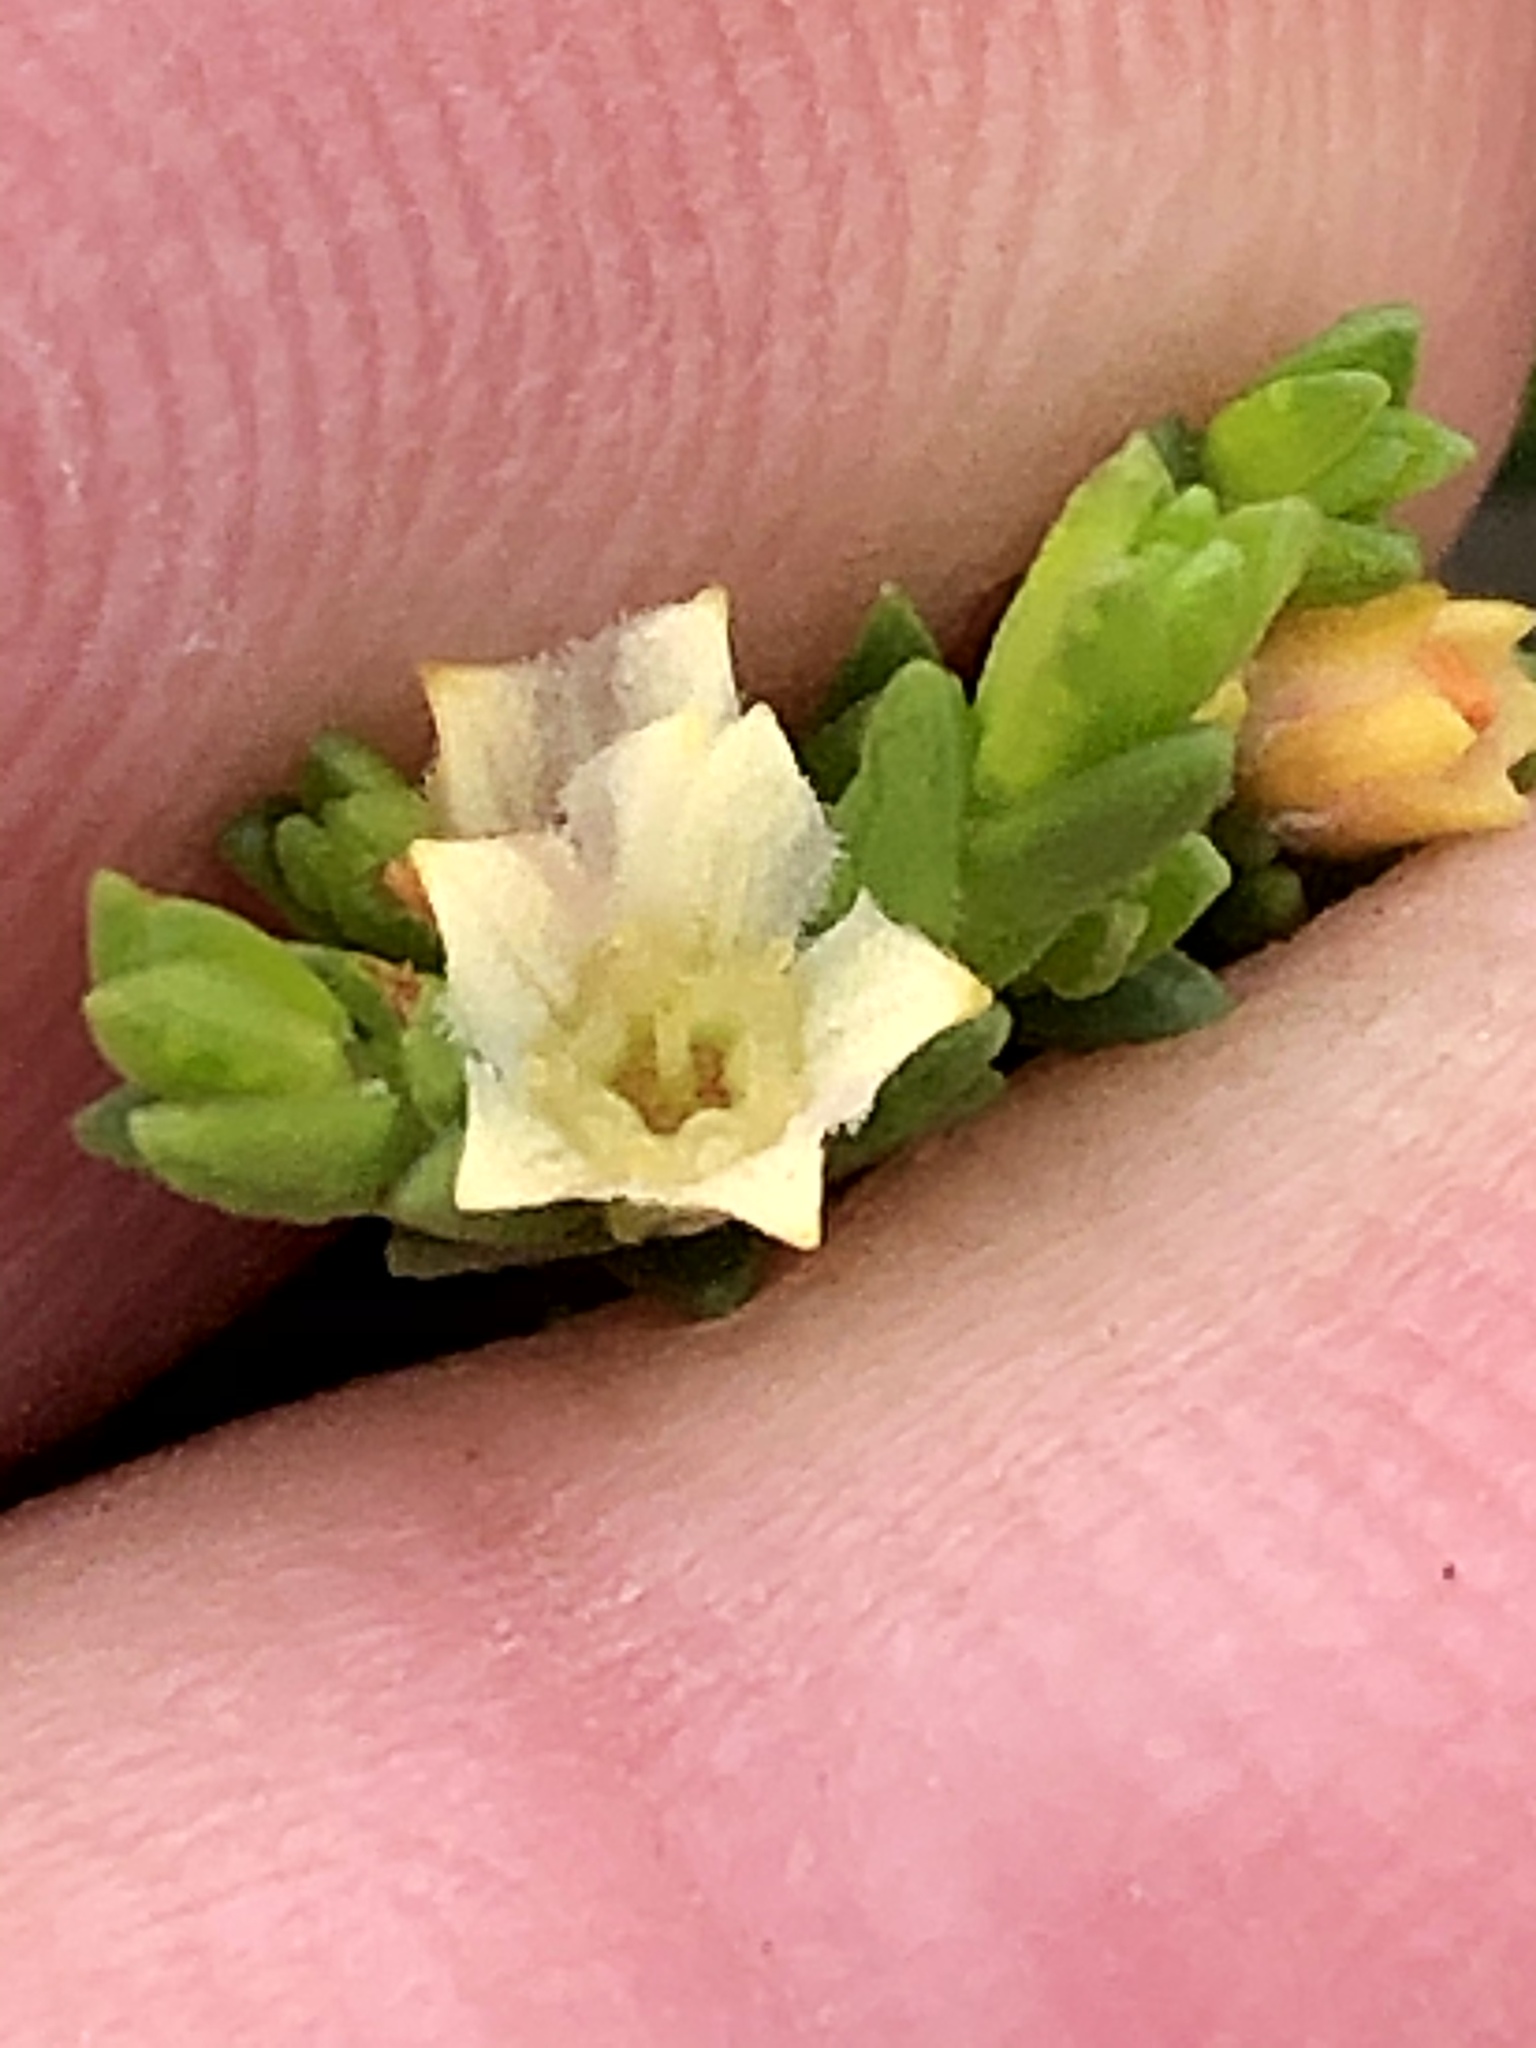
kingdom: Plantae
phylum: Tracheophyta
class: Magnoliopsida
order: Sapindales
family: Rutaceae
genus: Diosma
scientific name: Diosma apetala
